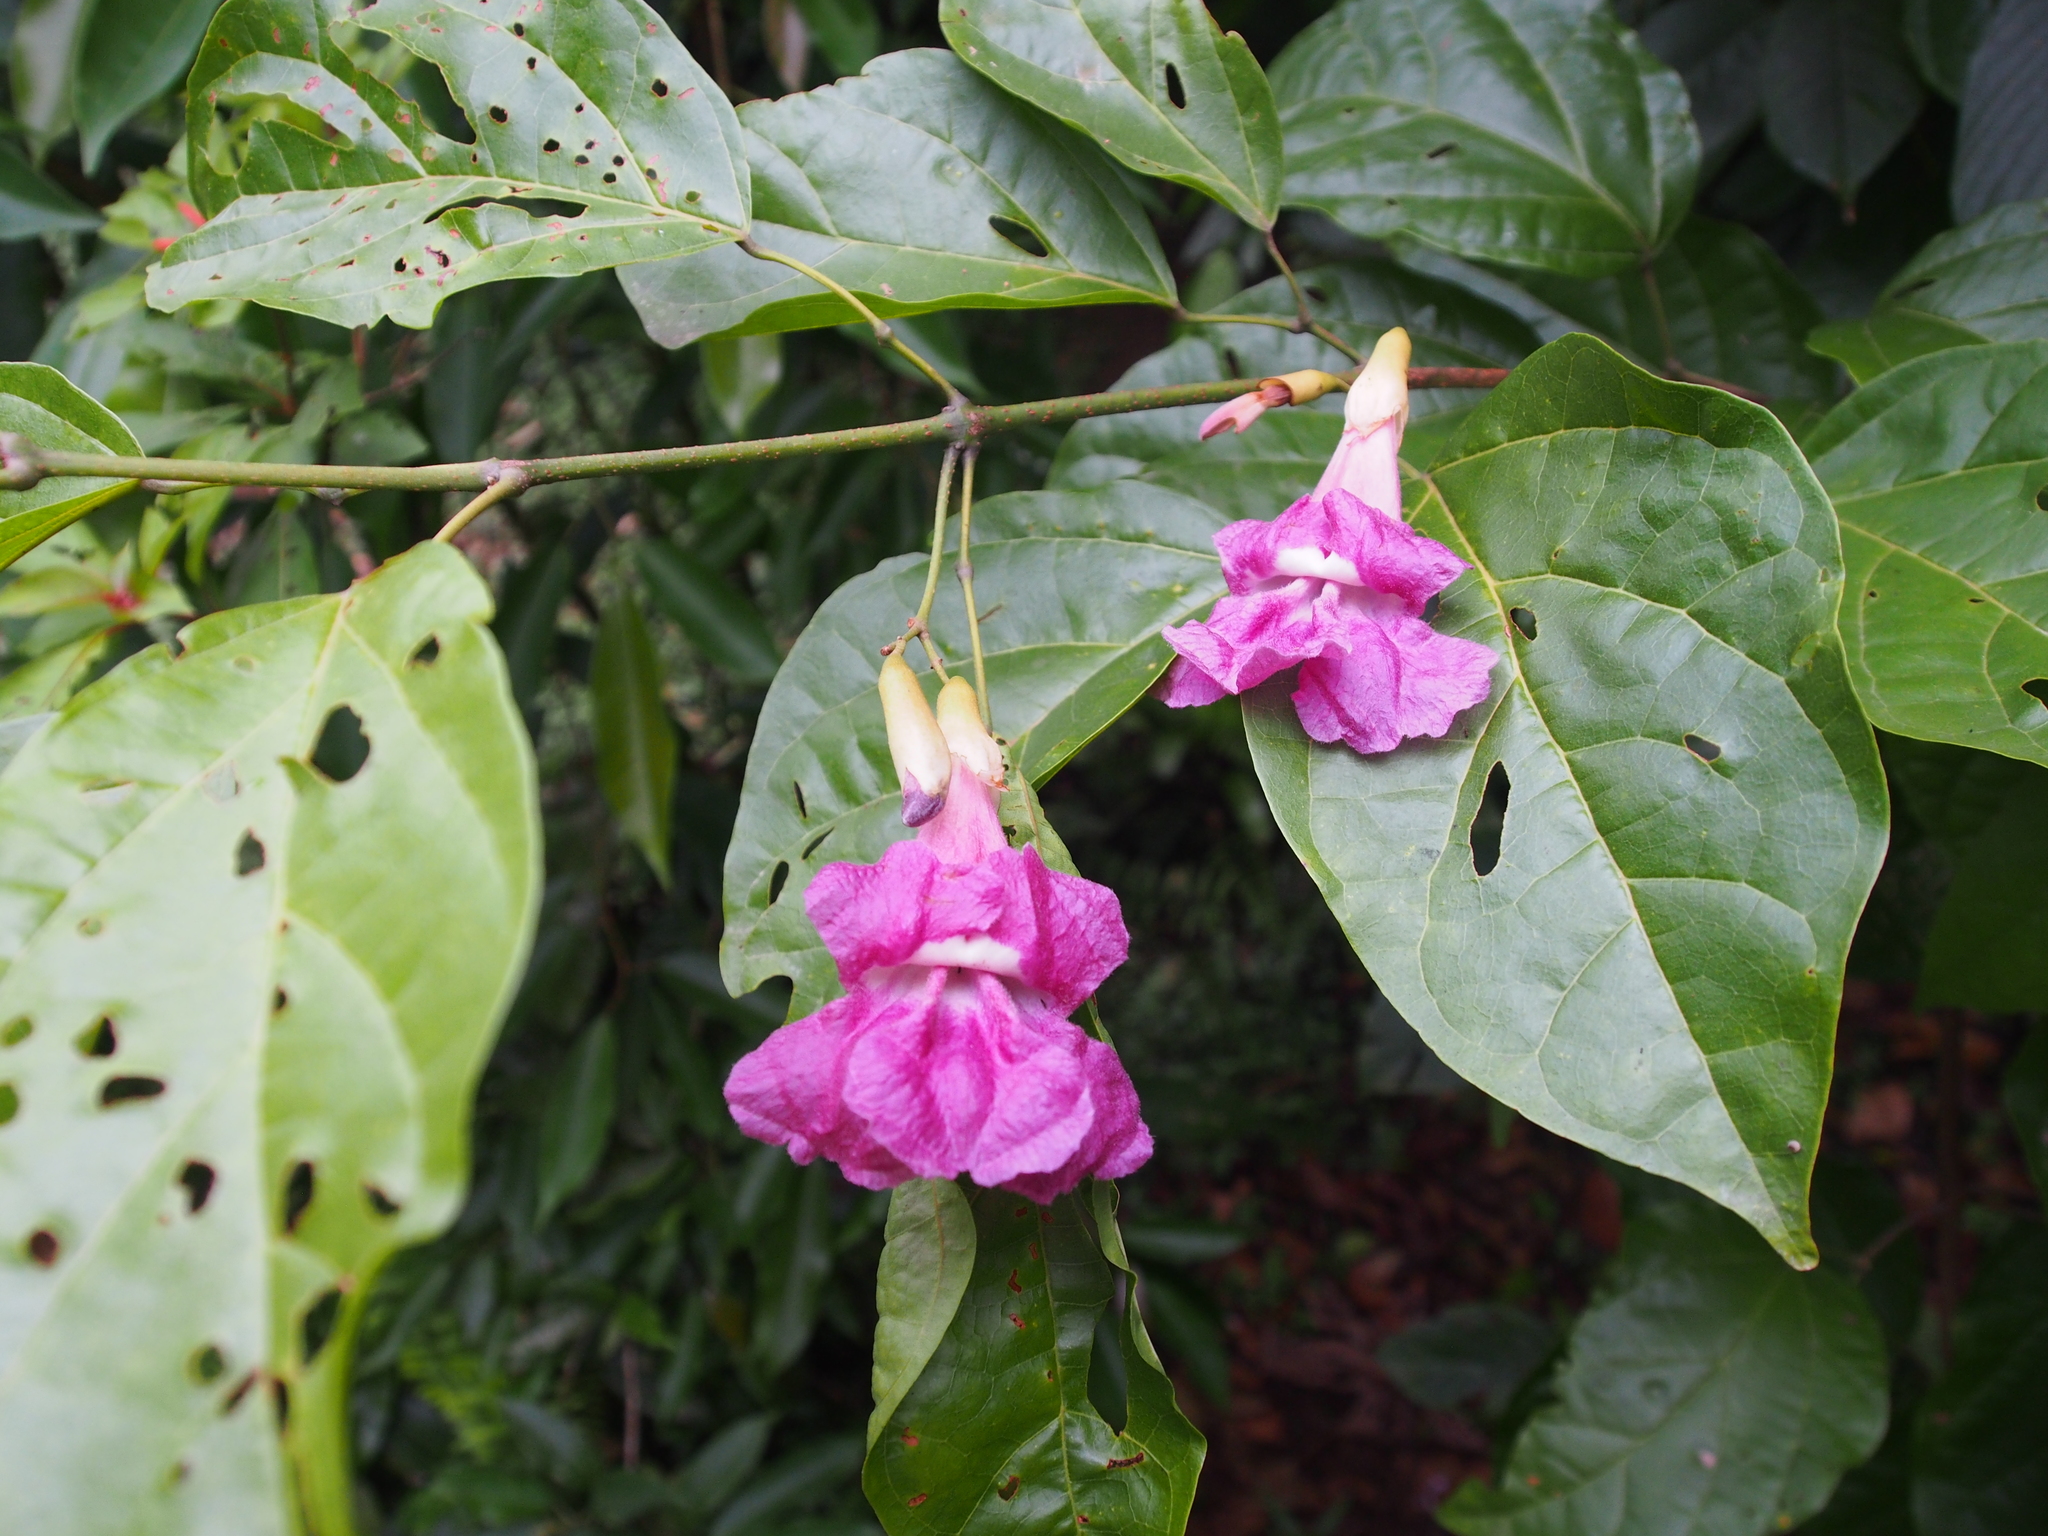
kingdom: Plantae
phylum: Tracheophyta
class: Magnoliopsida
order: Lamiales
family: Bignoniaceae
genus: Tanaecium
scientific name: Tanaecium pyramidatum
